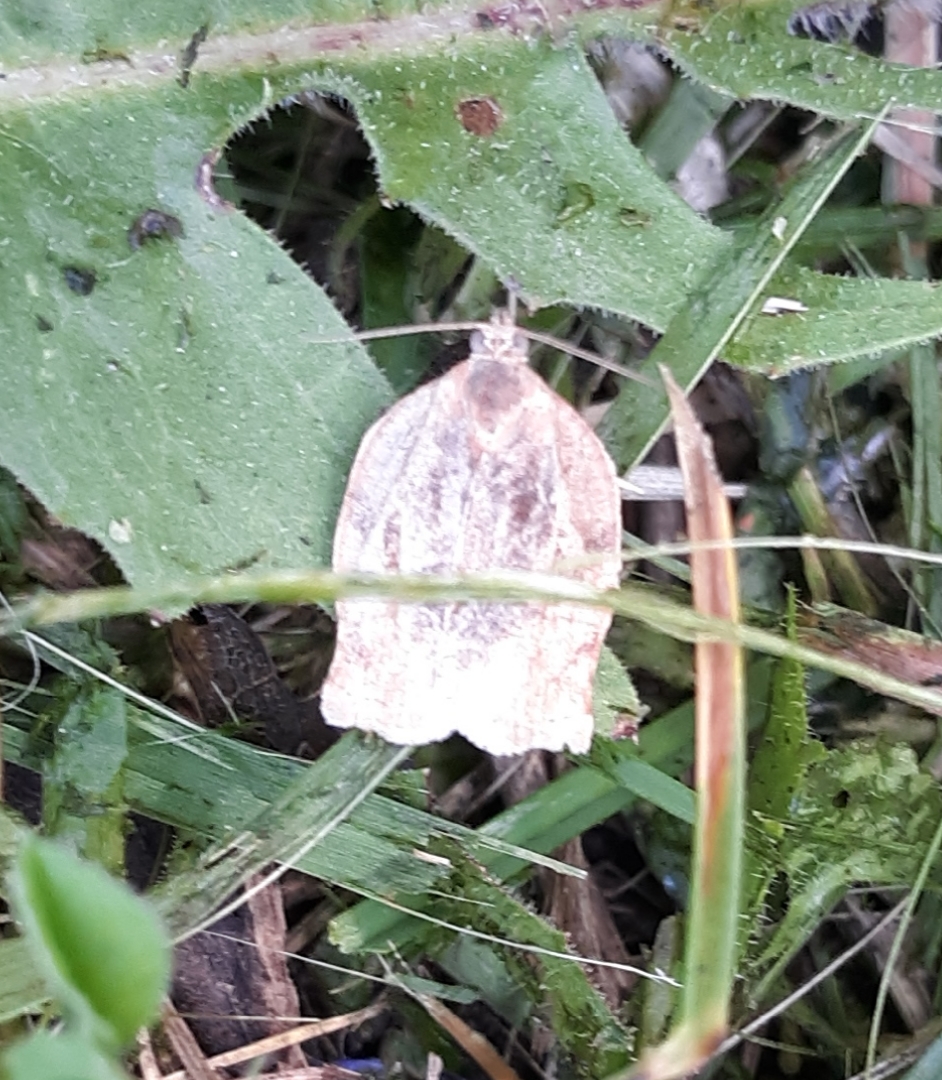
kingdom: Animalia
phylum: Arthropoda
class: Insecta
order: Lepidoptera
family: Tortricidae
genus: Archips
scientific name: Archips purpurana
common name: Omnivorous leafroller
